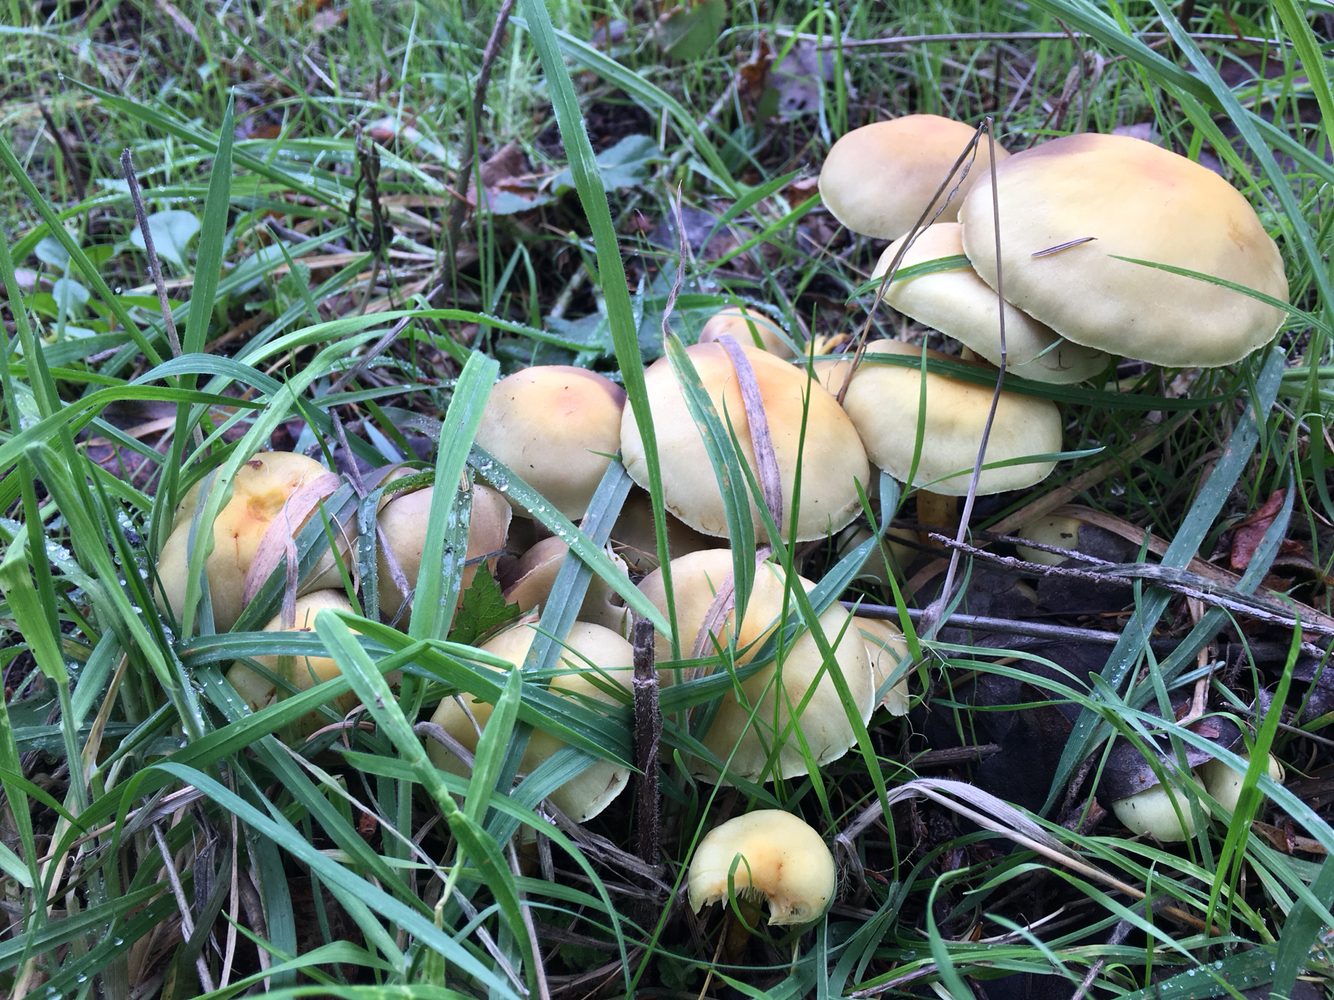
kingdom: Fungi
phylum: Basidiomycota
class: Agaricomycetes
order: Agaricales
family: Strophariaceae
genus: Hypholoma
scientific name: Hypholoma fasciculare
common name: Sulphur tuft
